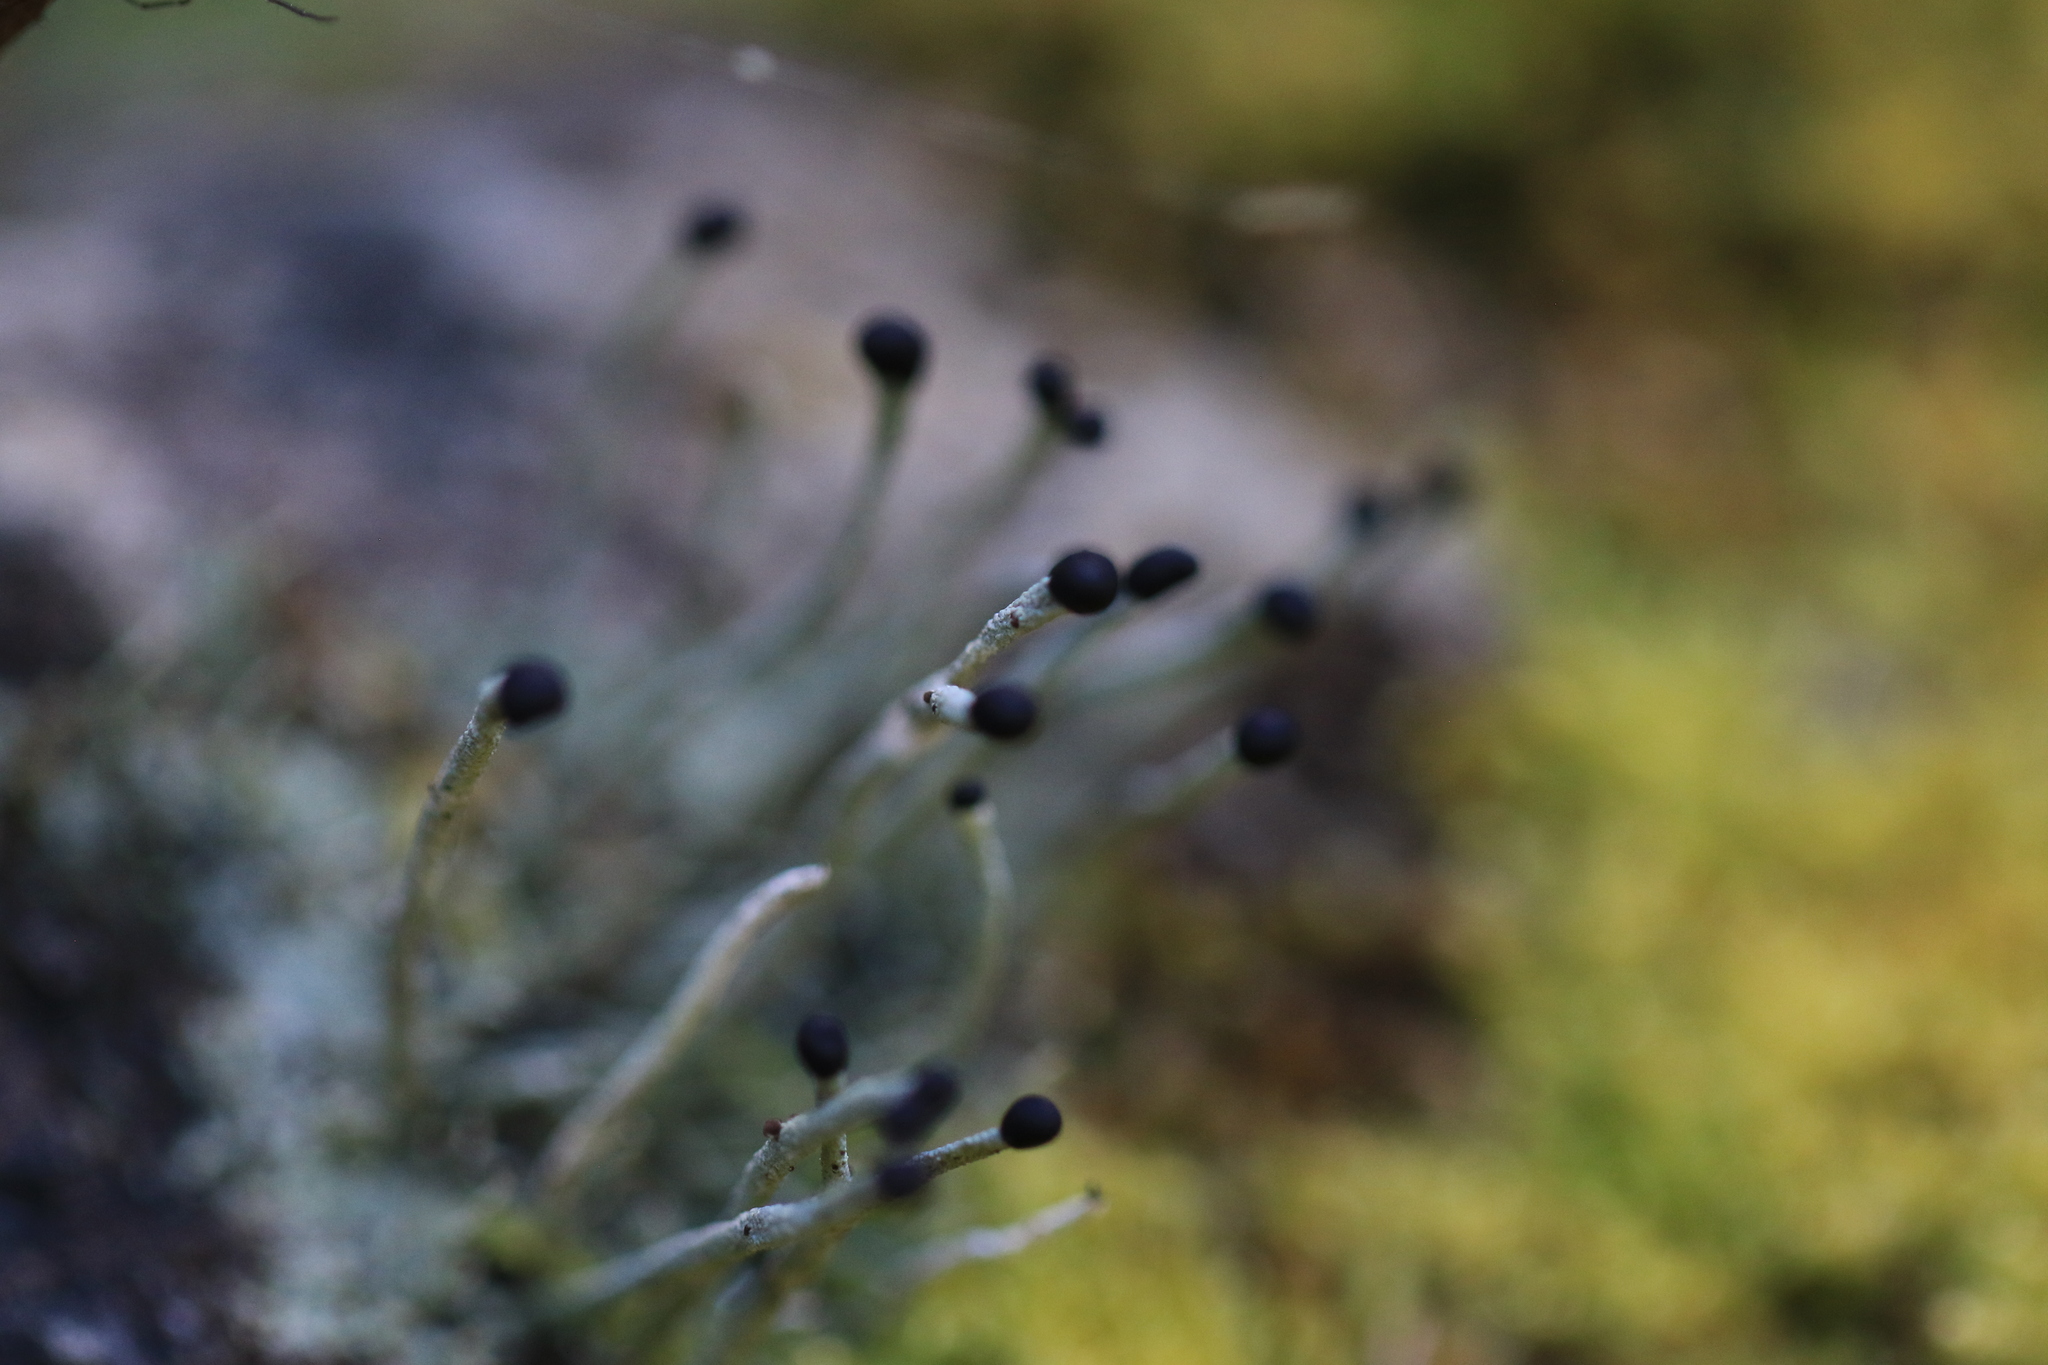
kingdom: Fungi
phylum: Ascomycota
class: Lecanoromycetes
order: Lecanorales
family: Cladoniaceae
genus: Pilophorus
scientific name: Pilophorus acicularis
